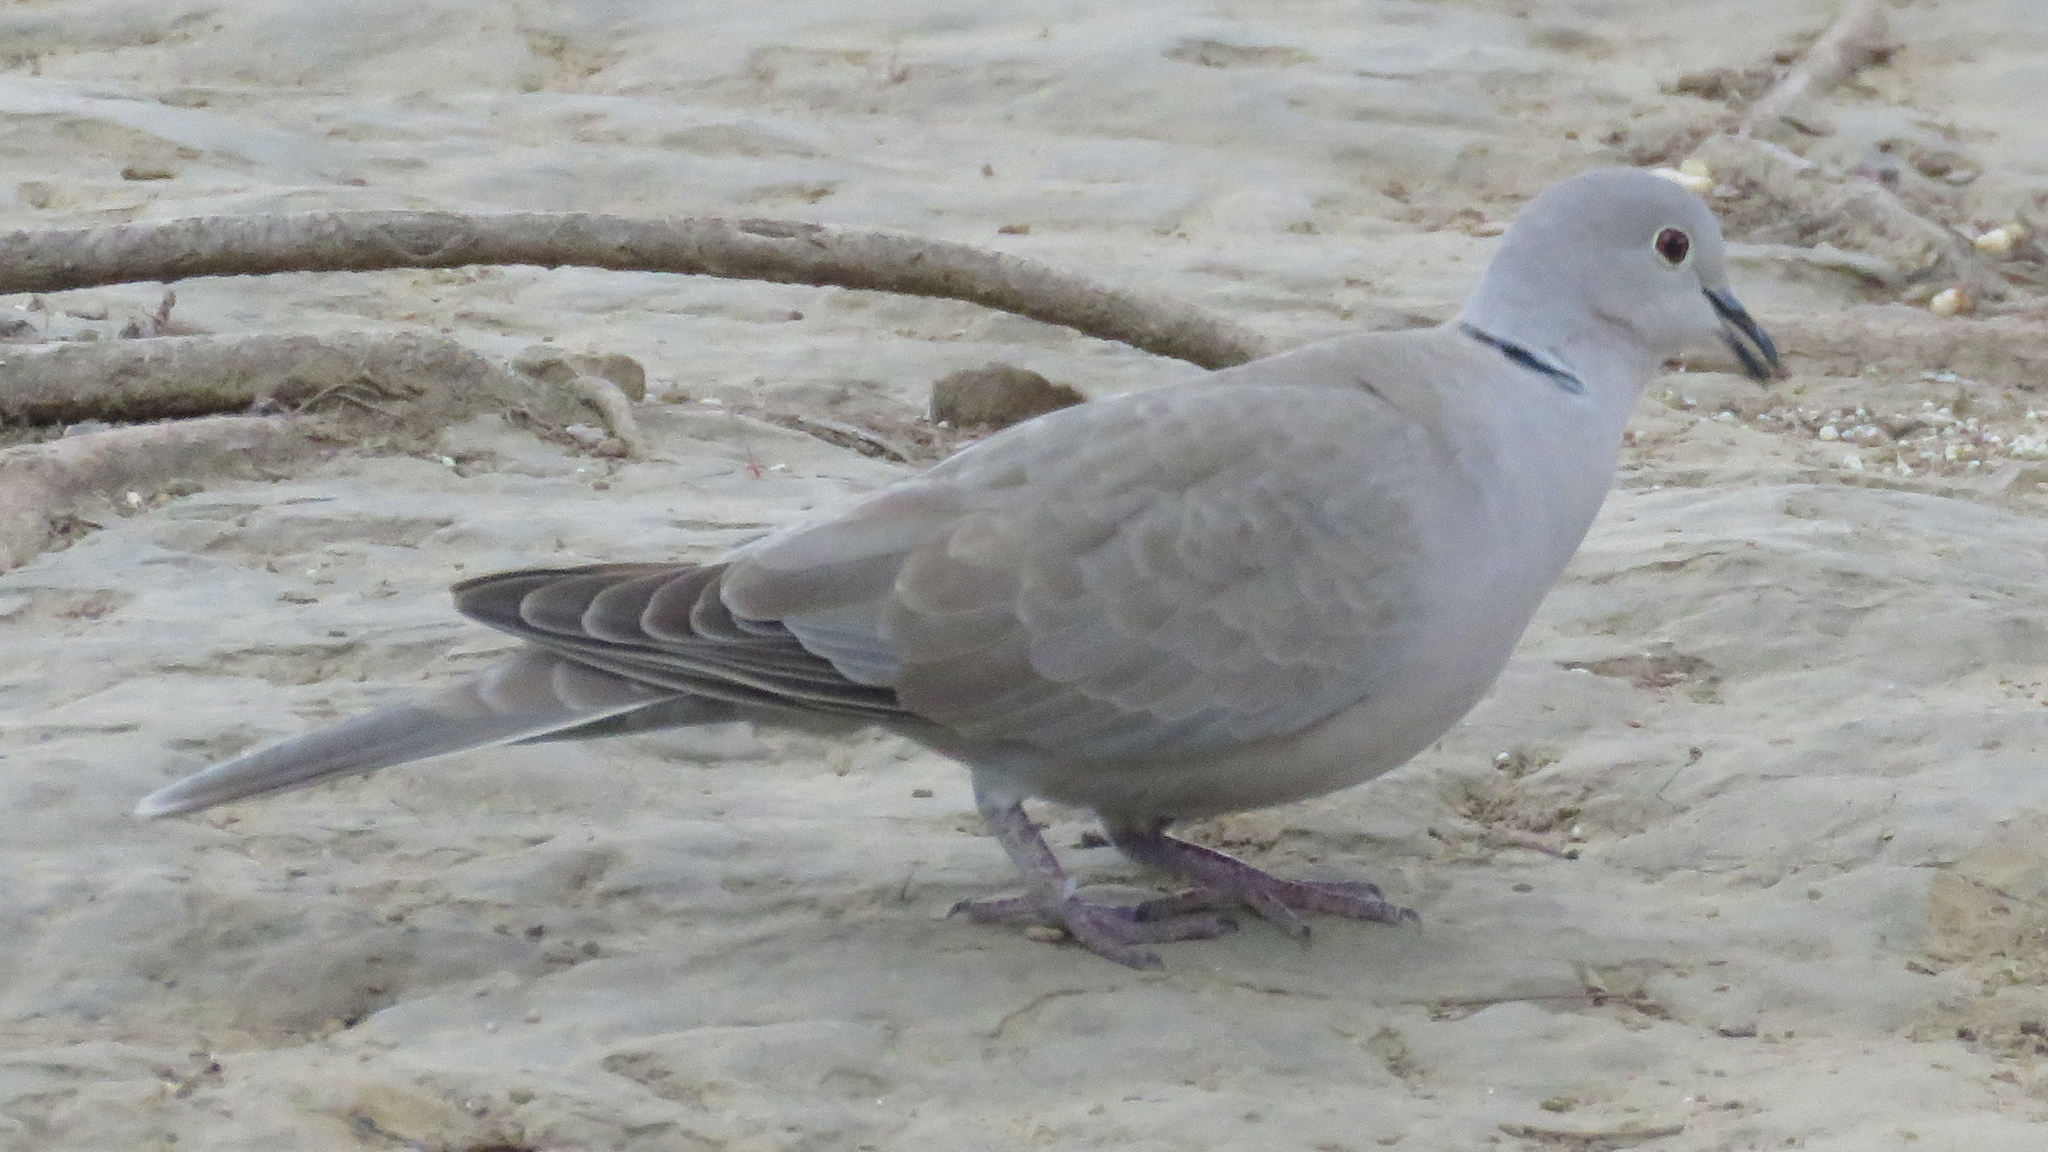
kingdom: Animalia
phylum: Chordata
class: Aves
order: Columbiformes
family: Columbidae
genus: Streptopelia
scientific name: Streptopelia decaocto
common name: Eurasian collared dove
